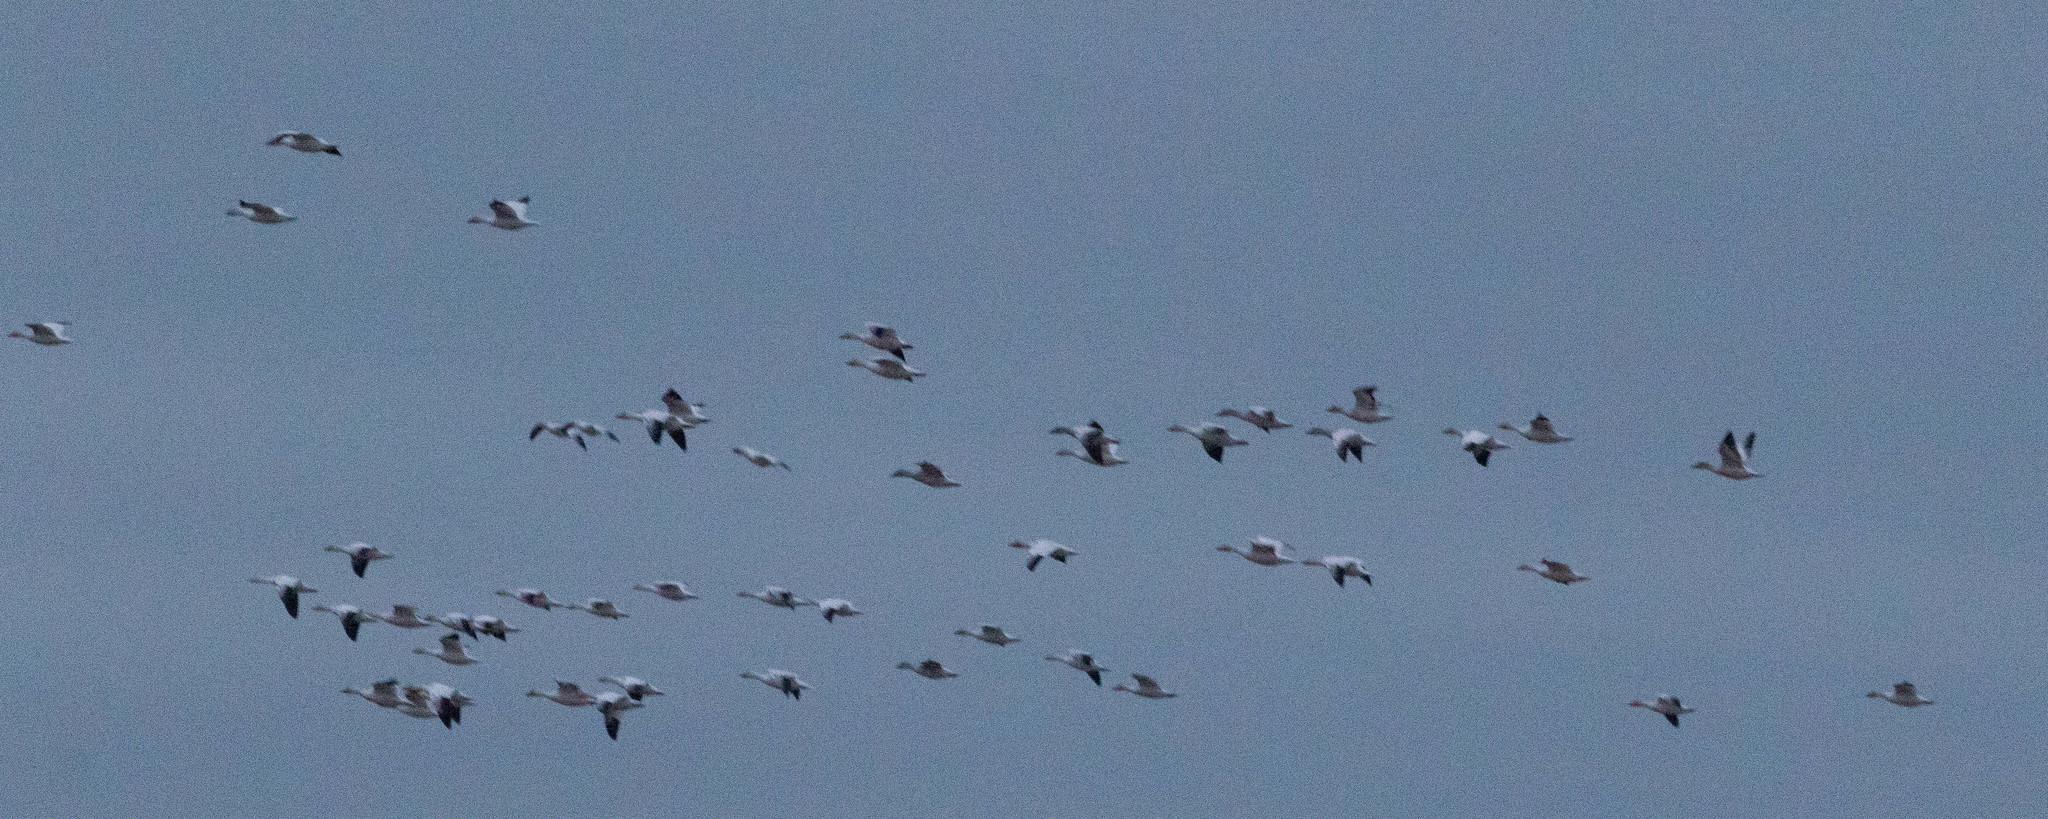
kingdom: Animalia
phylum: Chordata
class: Aves
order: Anseriformes
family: Anatidae
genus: Anser
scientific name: Anser caerulescens
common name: Snow goose
